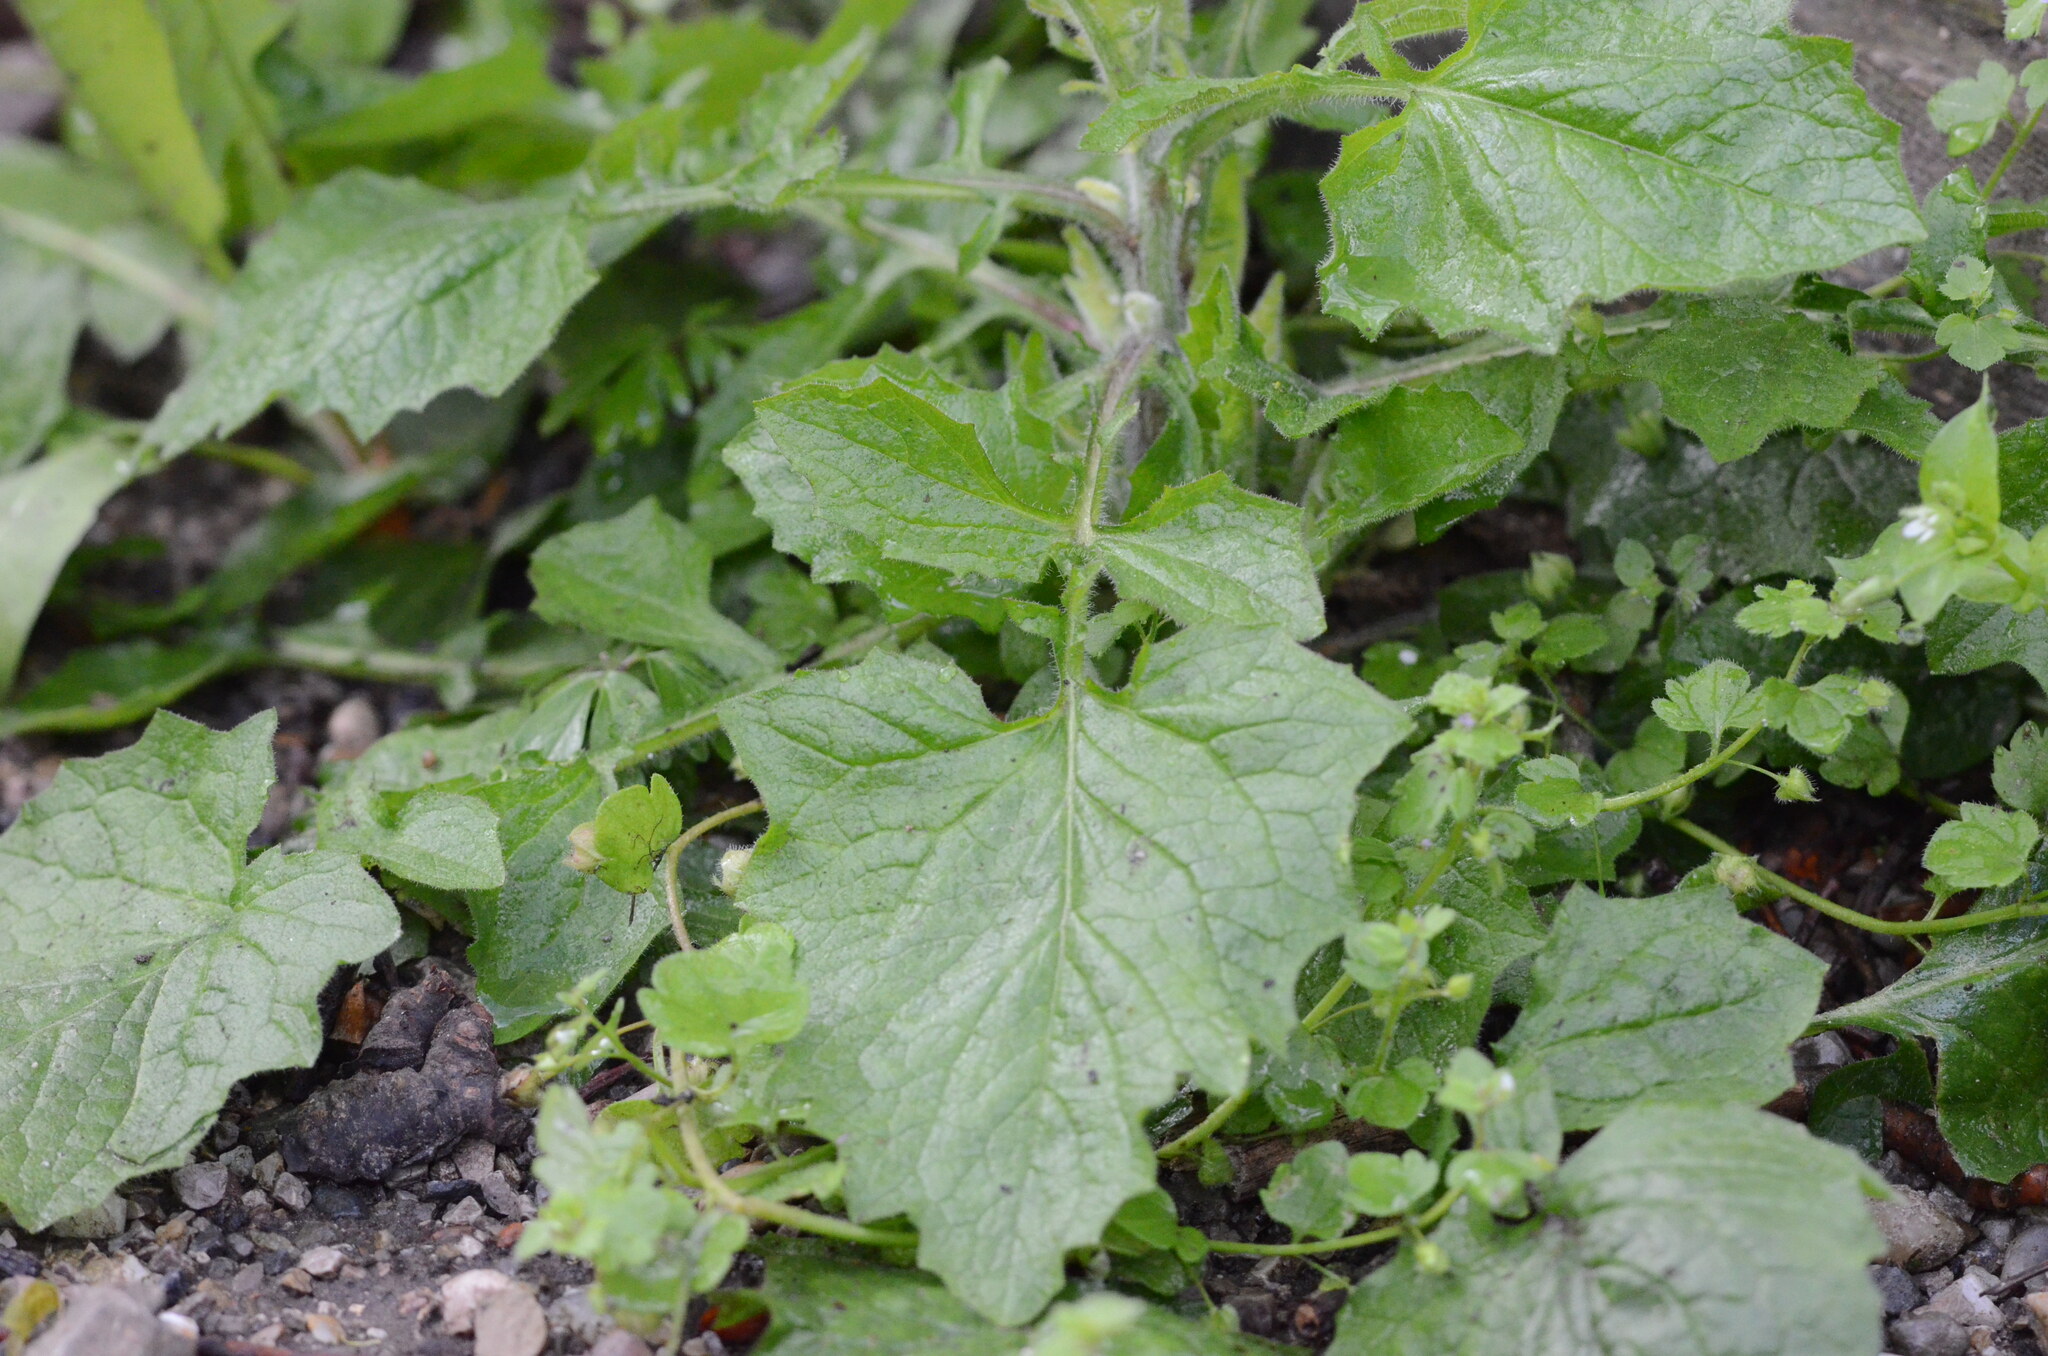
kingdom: Plantae
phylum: Tracheophyta
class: Magnoliopsida
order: Asterales
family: Asteraceae
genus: Lapsana
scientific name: Lapsana communis
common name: Nipplewort
